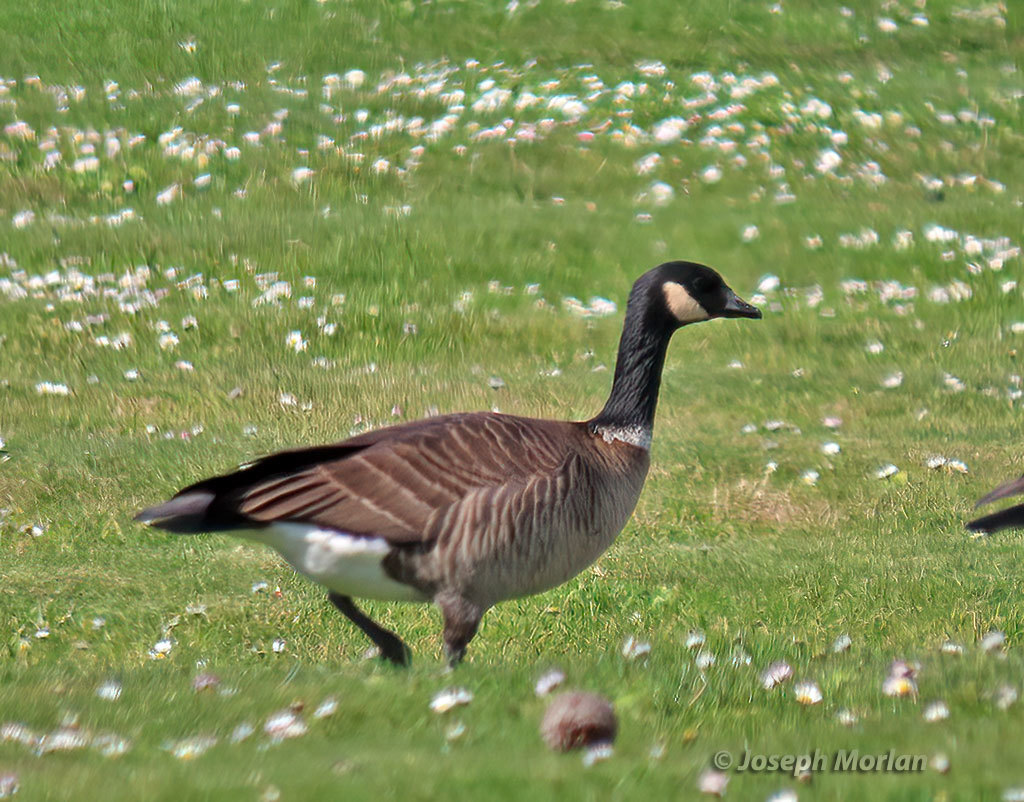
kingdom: Animalia
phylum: Chordata
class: Aves
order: Anseriformes
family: Anatidae
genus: Branta
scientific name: Branta hutchinsii
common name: Cackling goose
